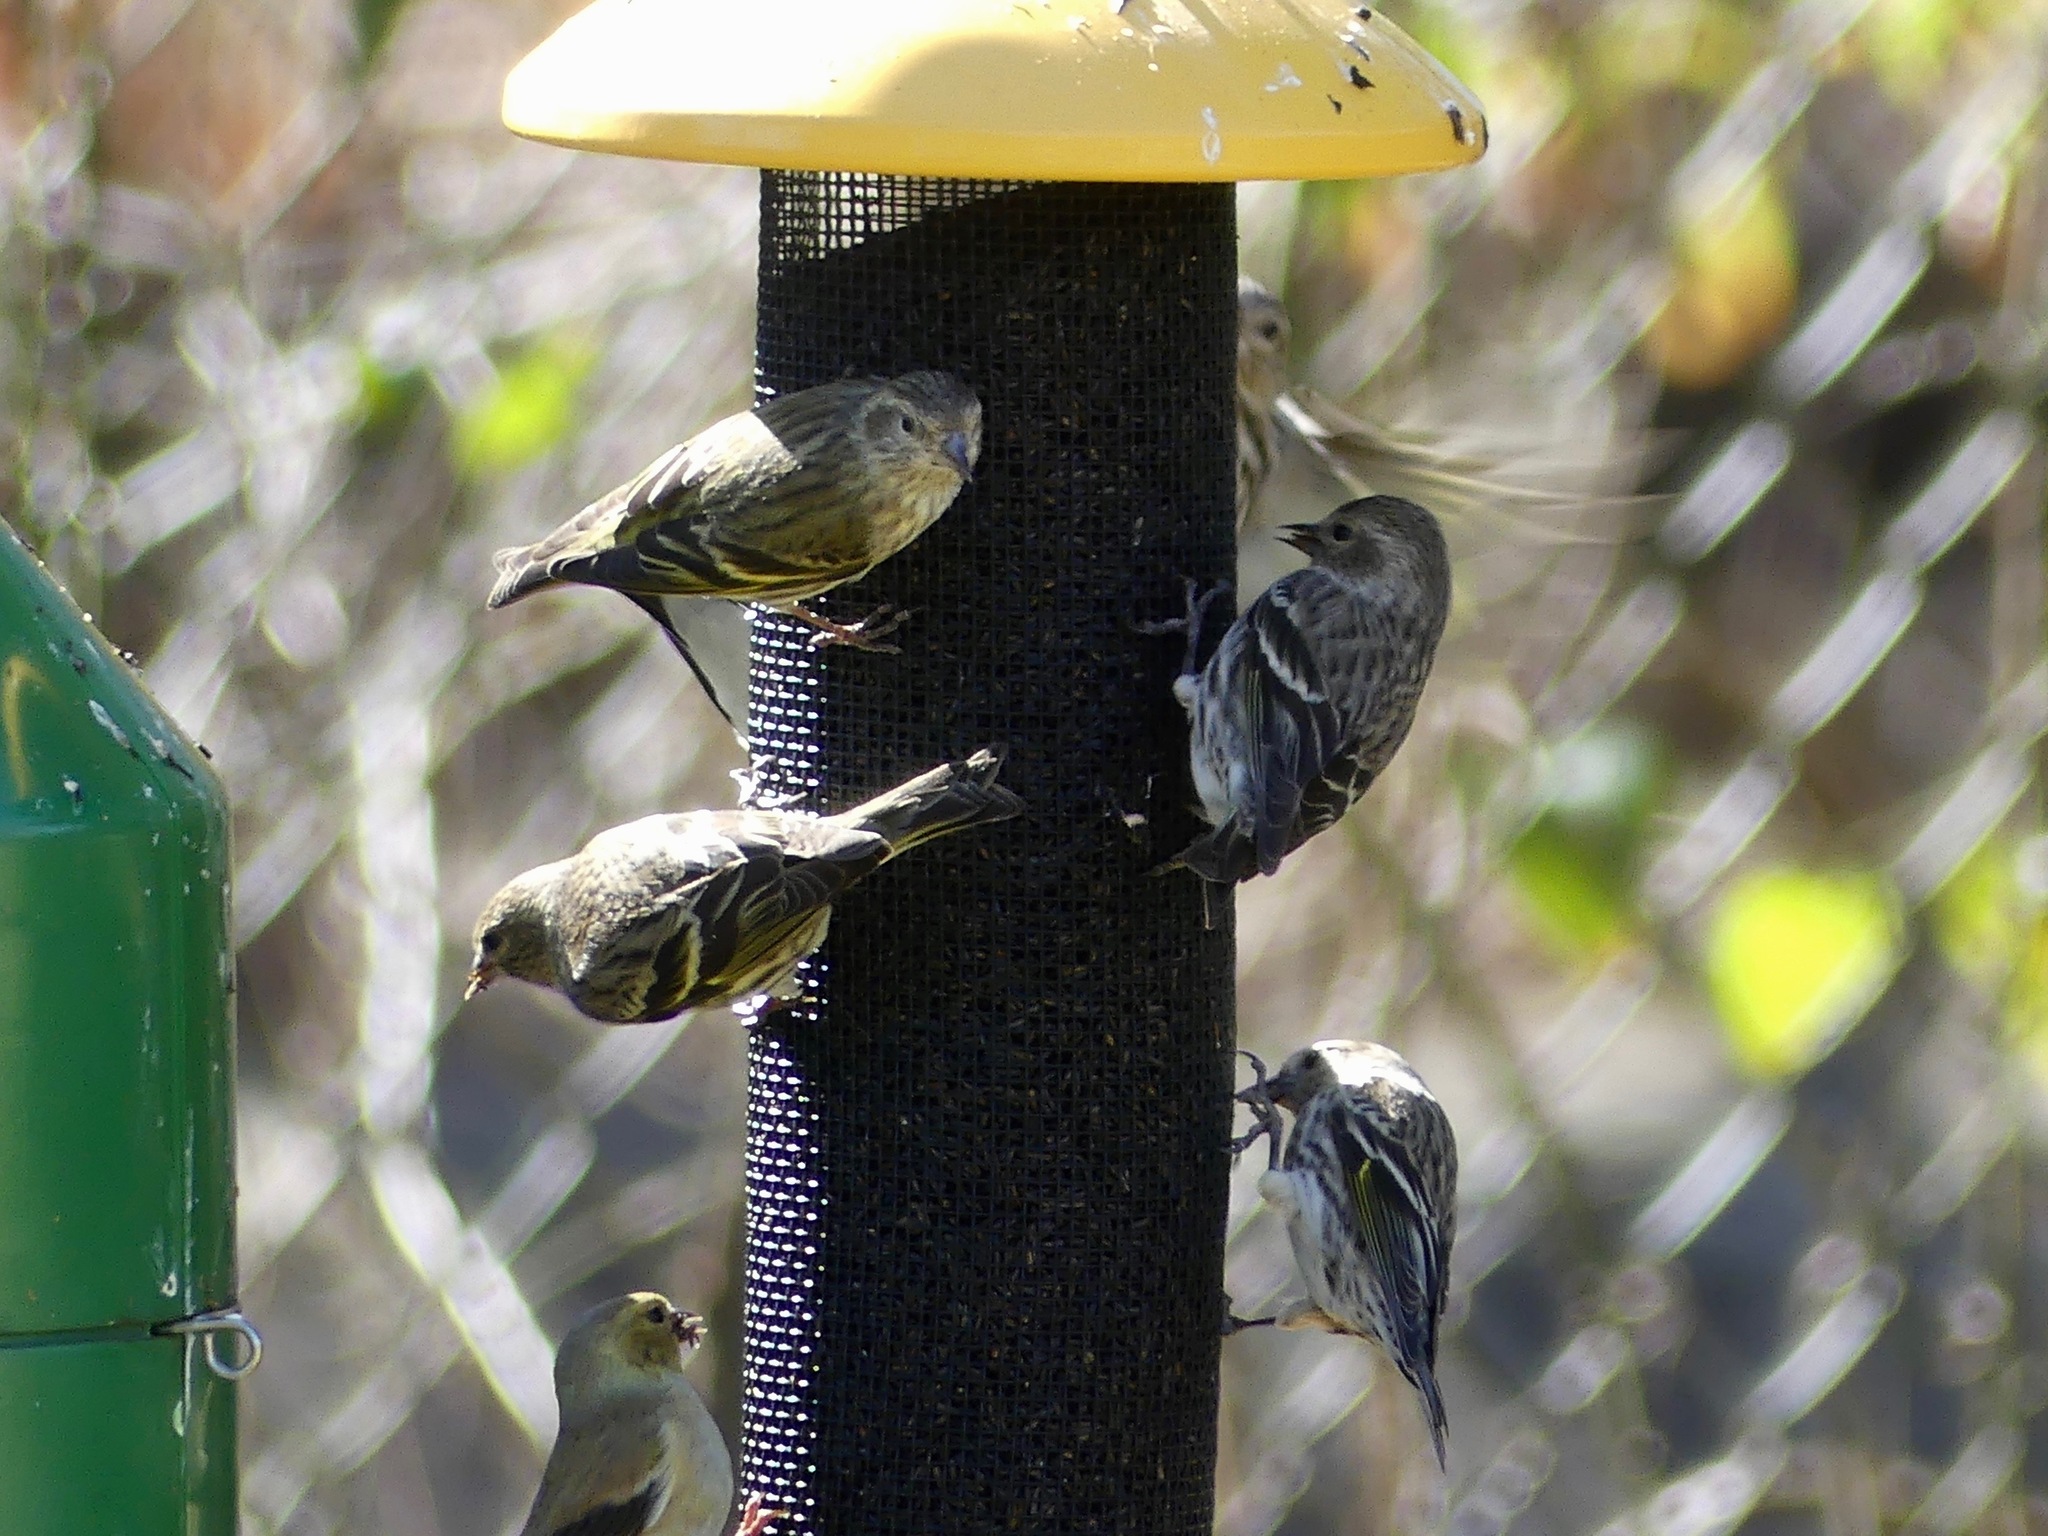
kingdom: Animalia
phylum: Chordata
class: Aves
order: Passeriformes
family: Fringillidae
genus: Spinus
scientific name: Spinus pinus
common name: Pine siskin
